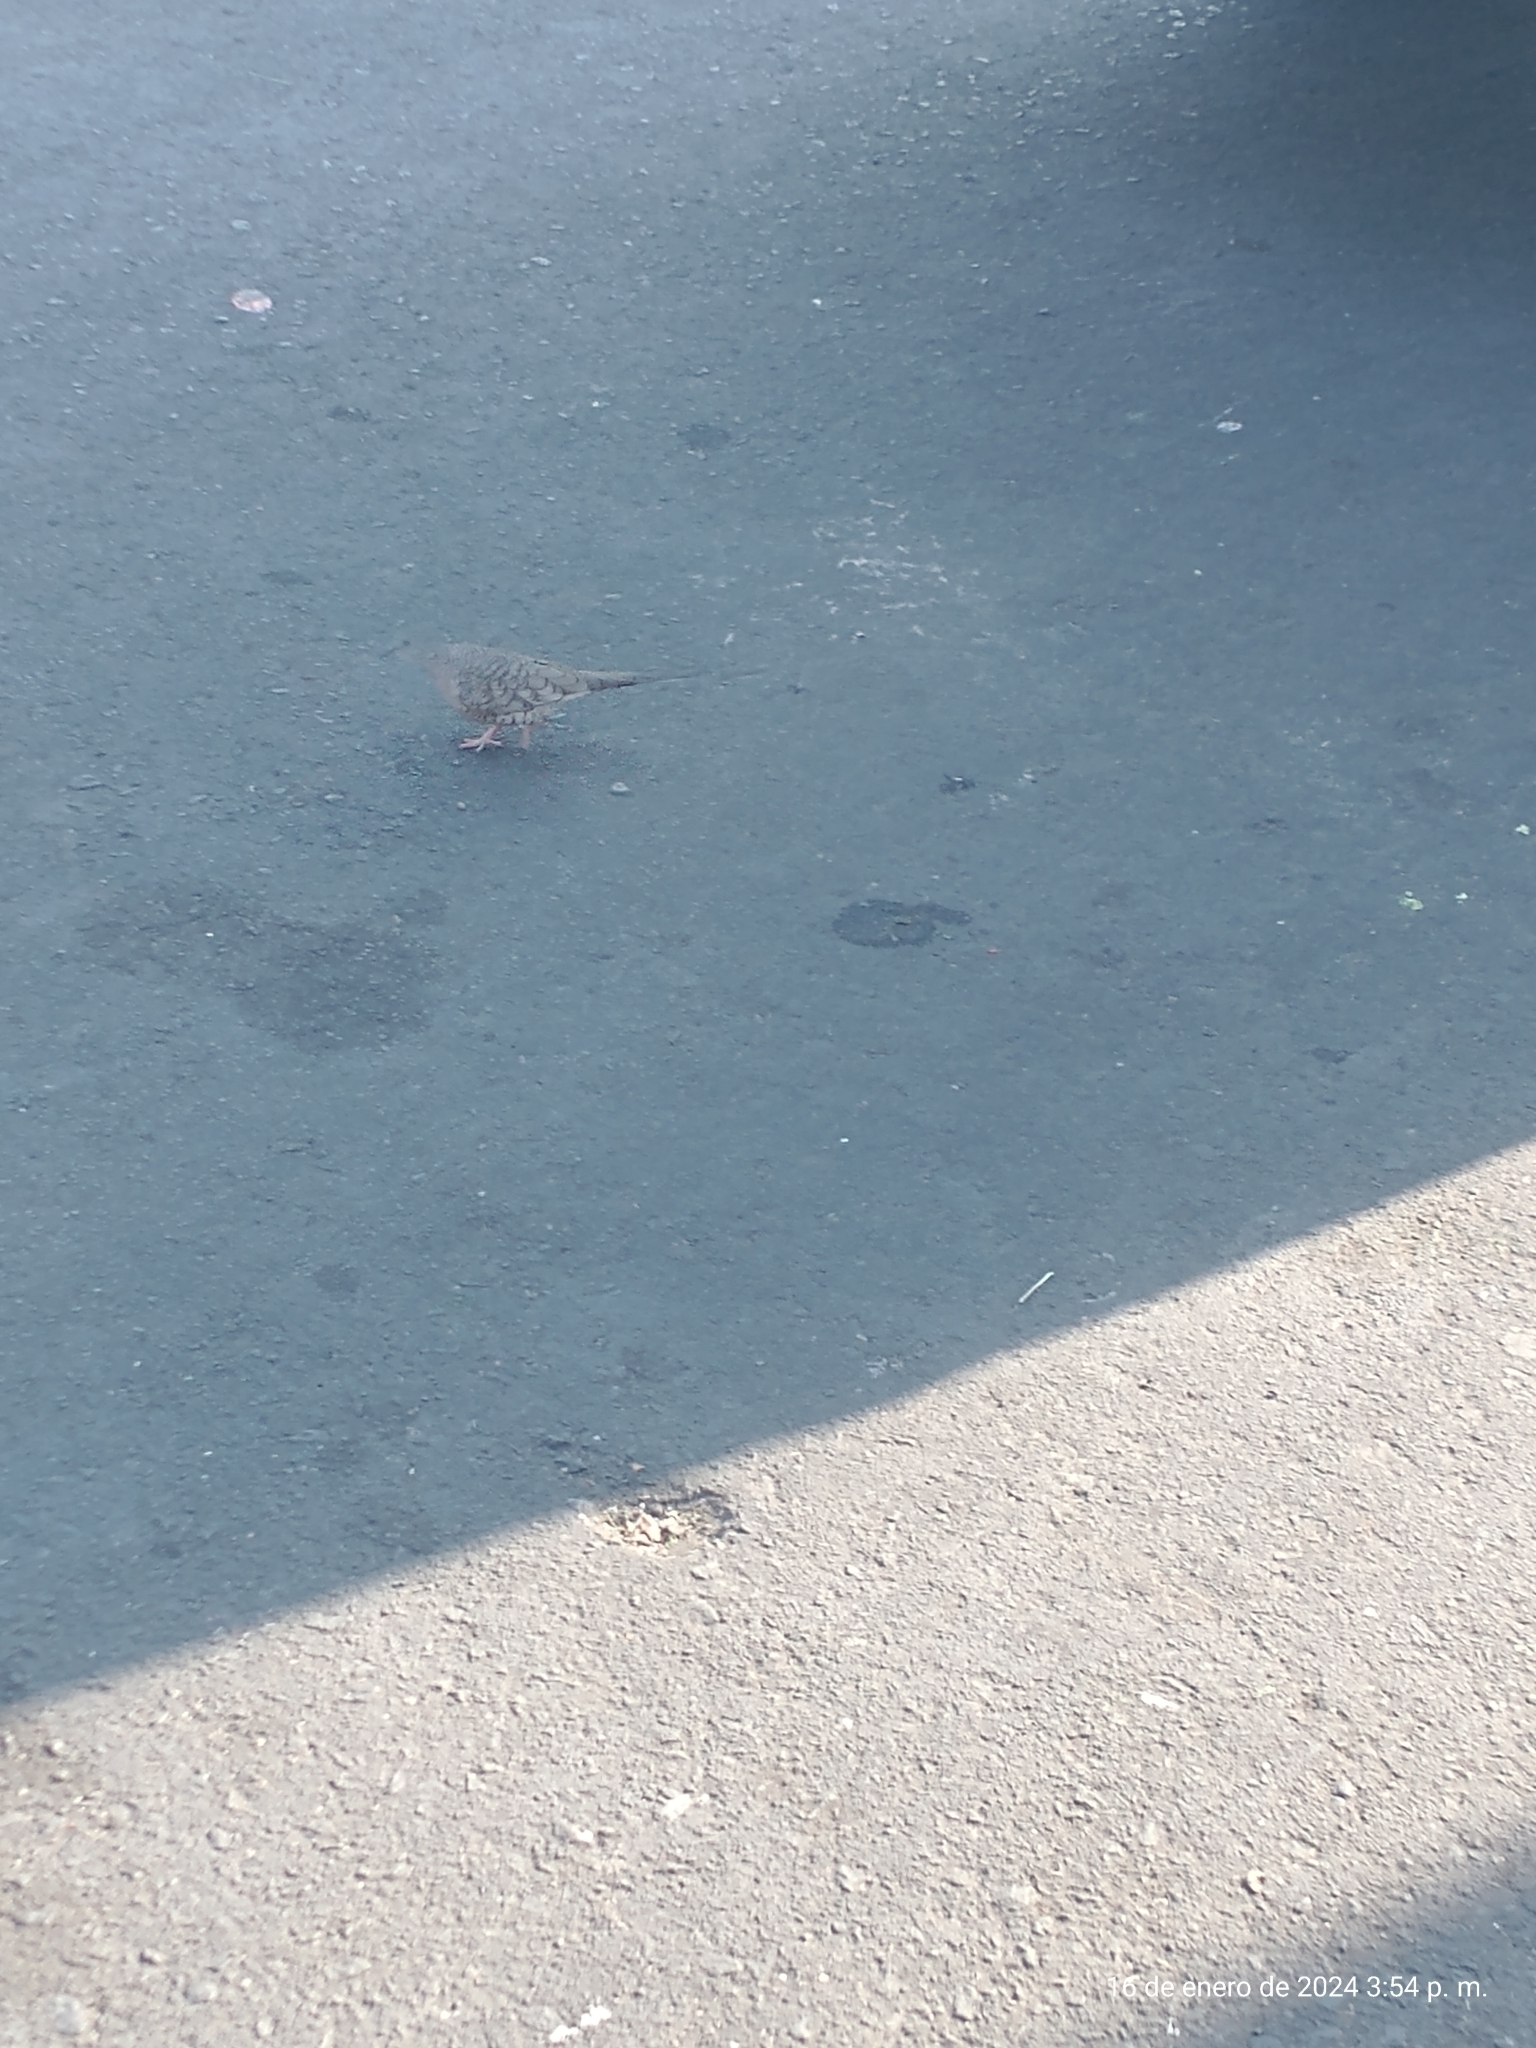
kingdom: Animalia
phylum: Chordata
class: Aves
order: Columbiformes
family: Columbidae
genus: Columbina
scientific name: Columbina inca
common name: Inca dove
